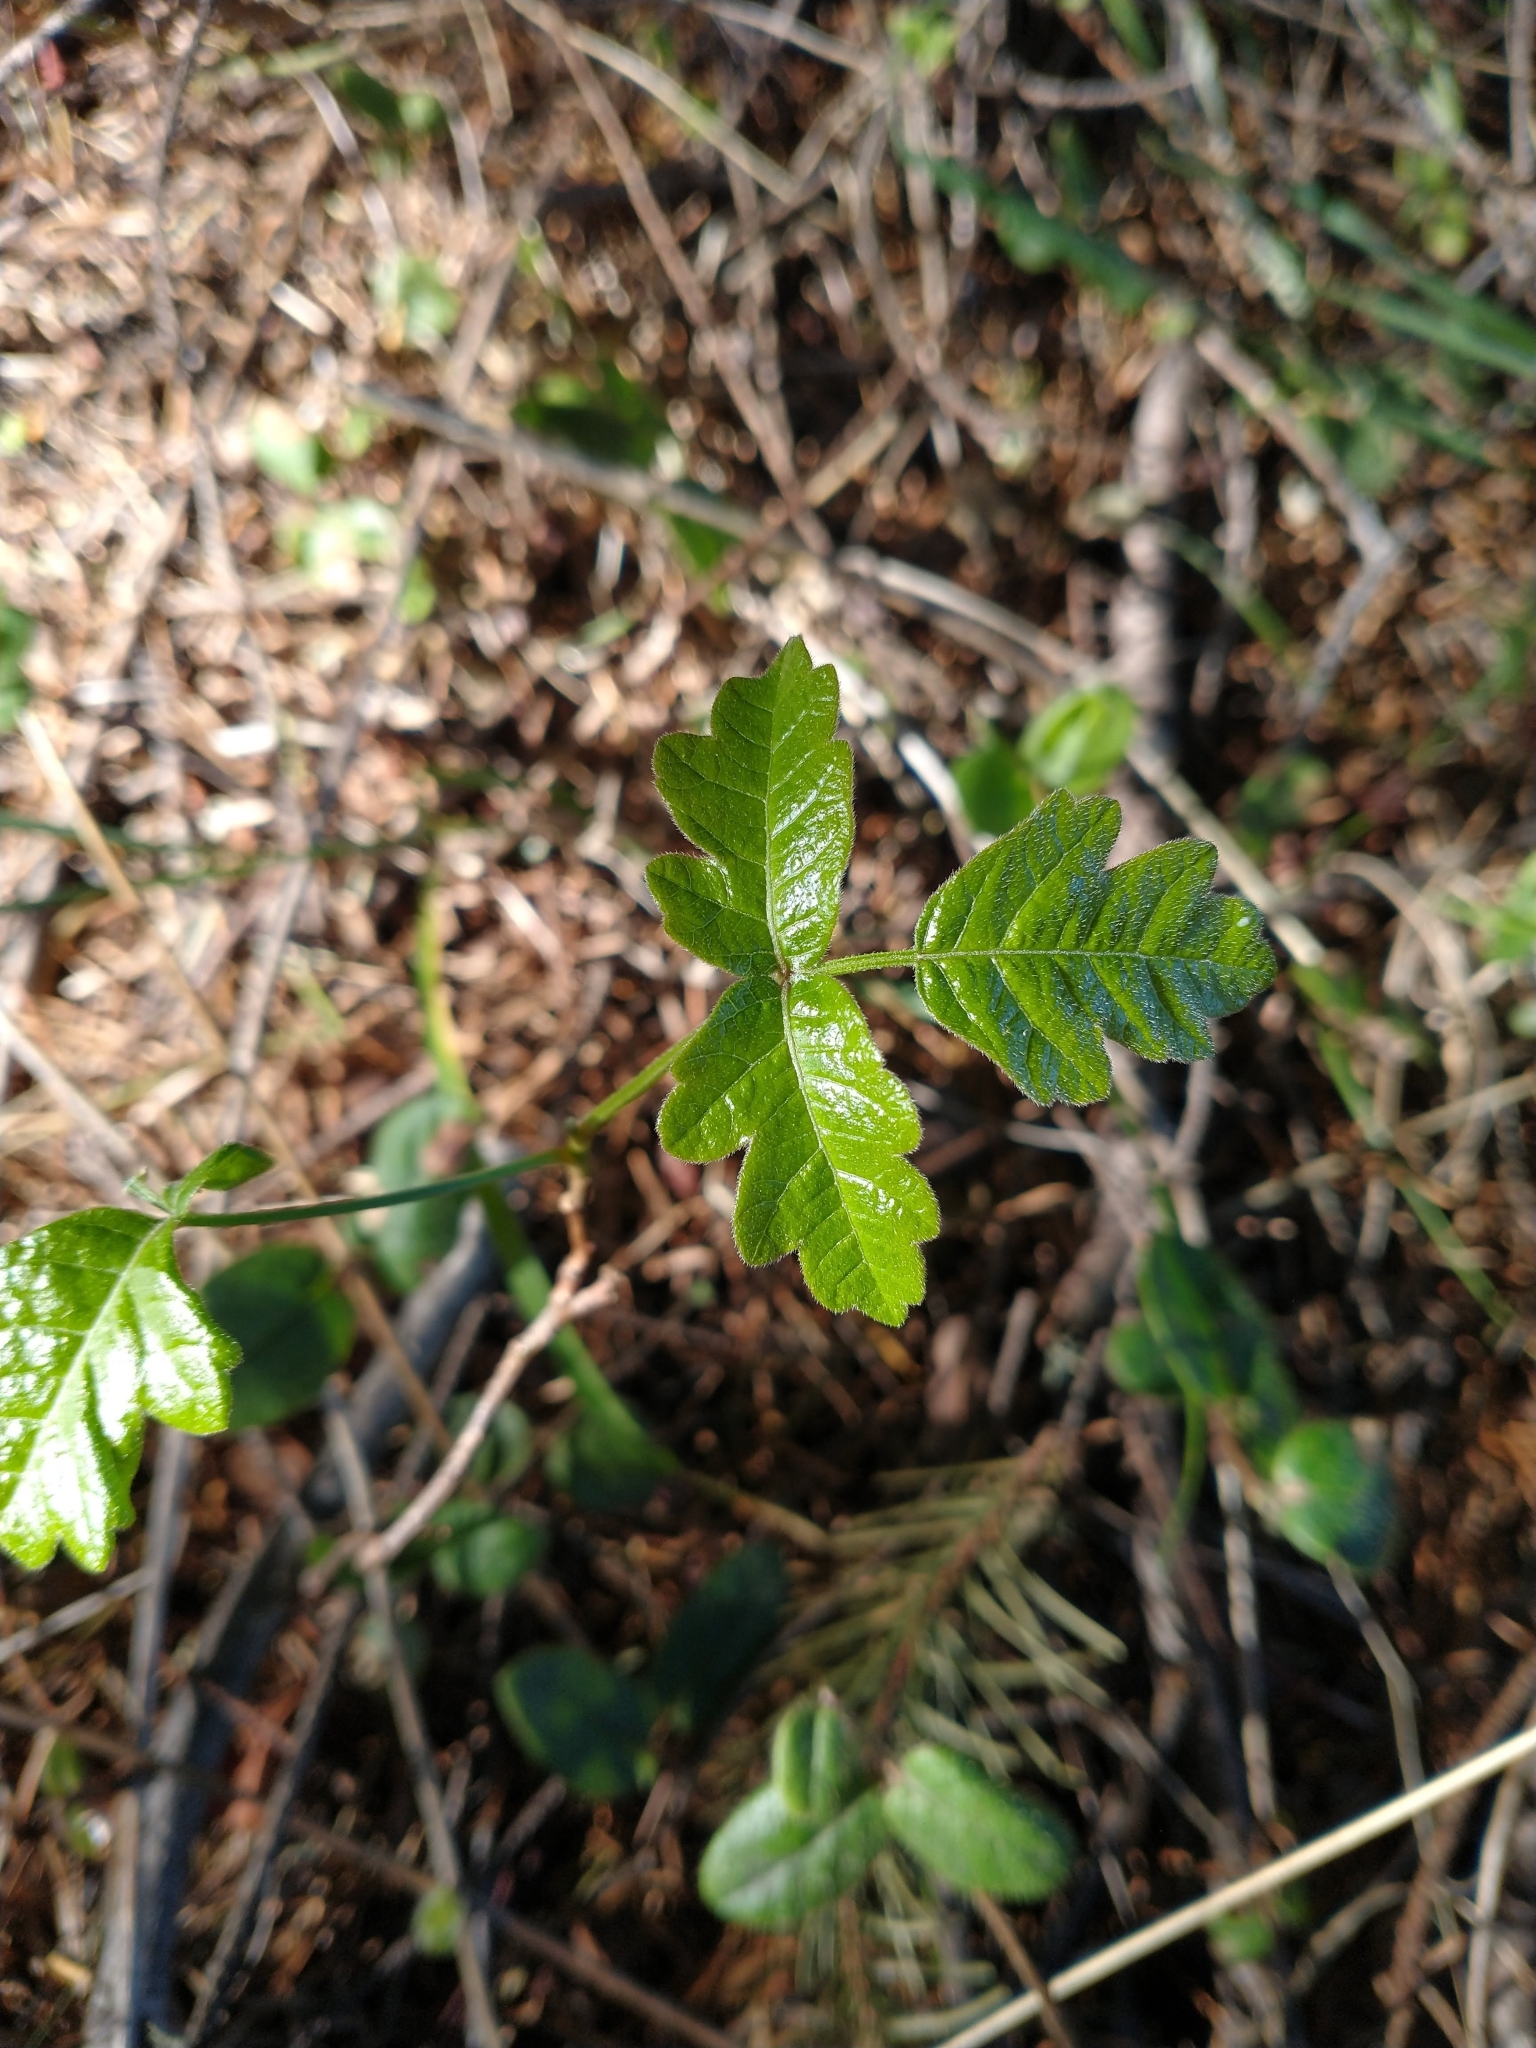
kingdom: Plantae
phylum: Tracheophyta
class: Magnoliopsida
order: Sapindales
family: Anacardiaceae
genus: Toxicodendron
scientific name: Toxicodendron diversilobum
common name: Pacific poison-oak
